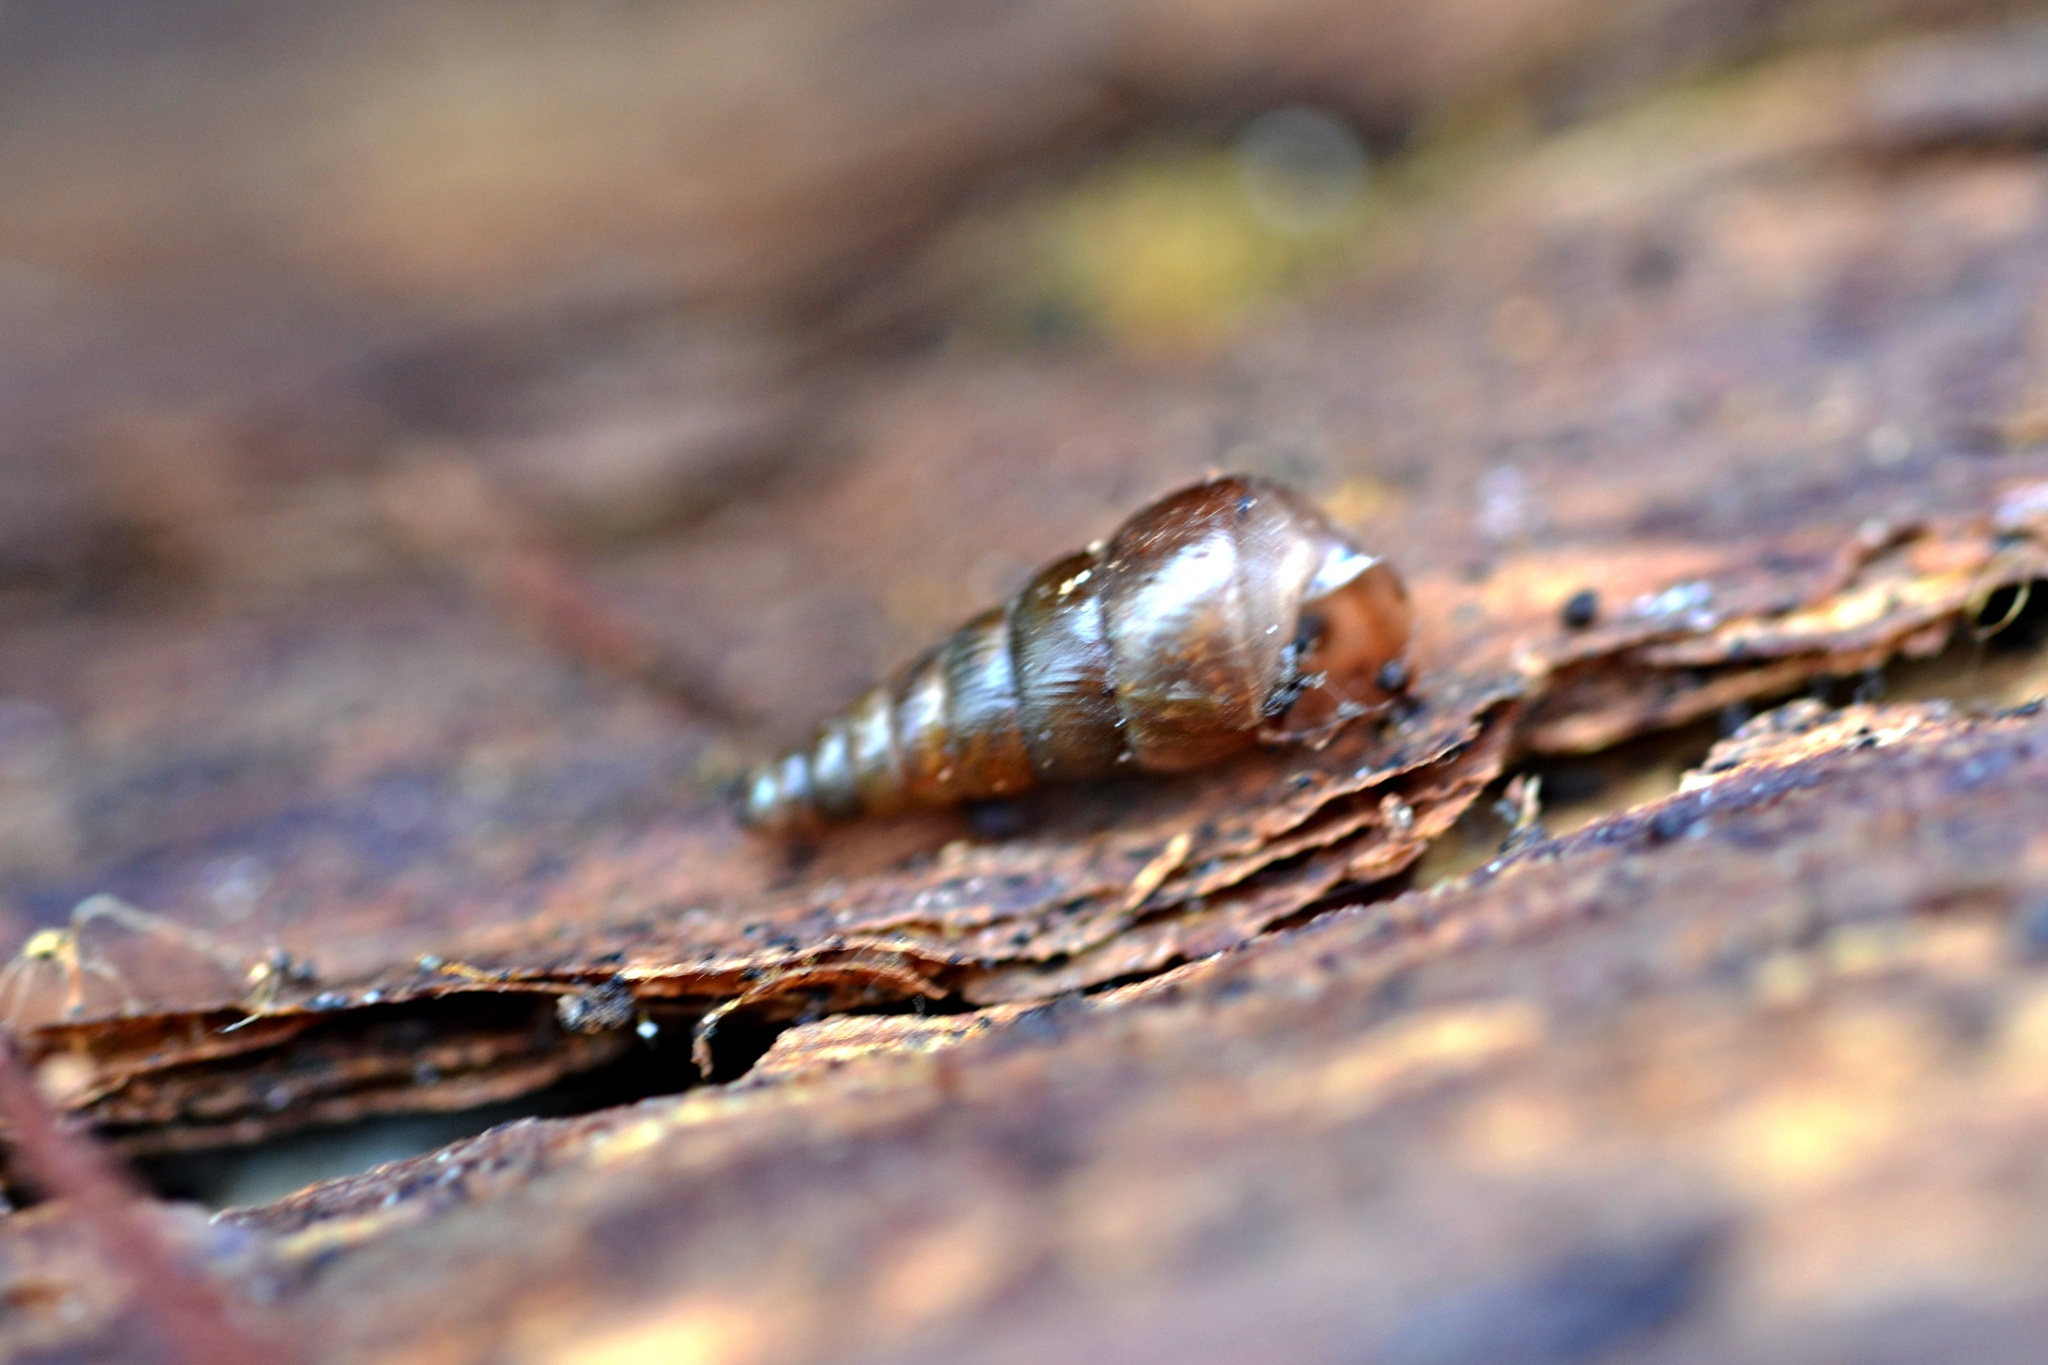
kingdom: Animalia
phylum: Mollusca
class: Gastropoda
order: Stylommatophora
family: Clausiliidae
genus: Cochlodina
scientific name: Cochlodina laminata
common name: Plaited door snail
